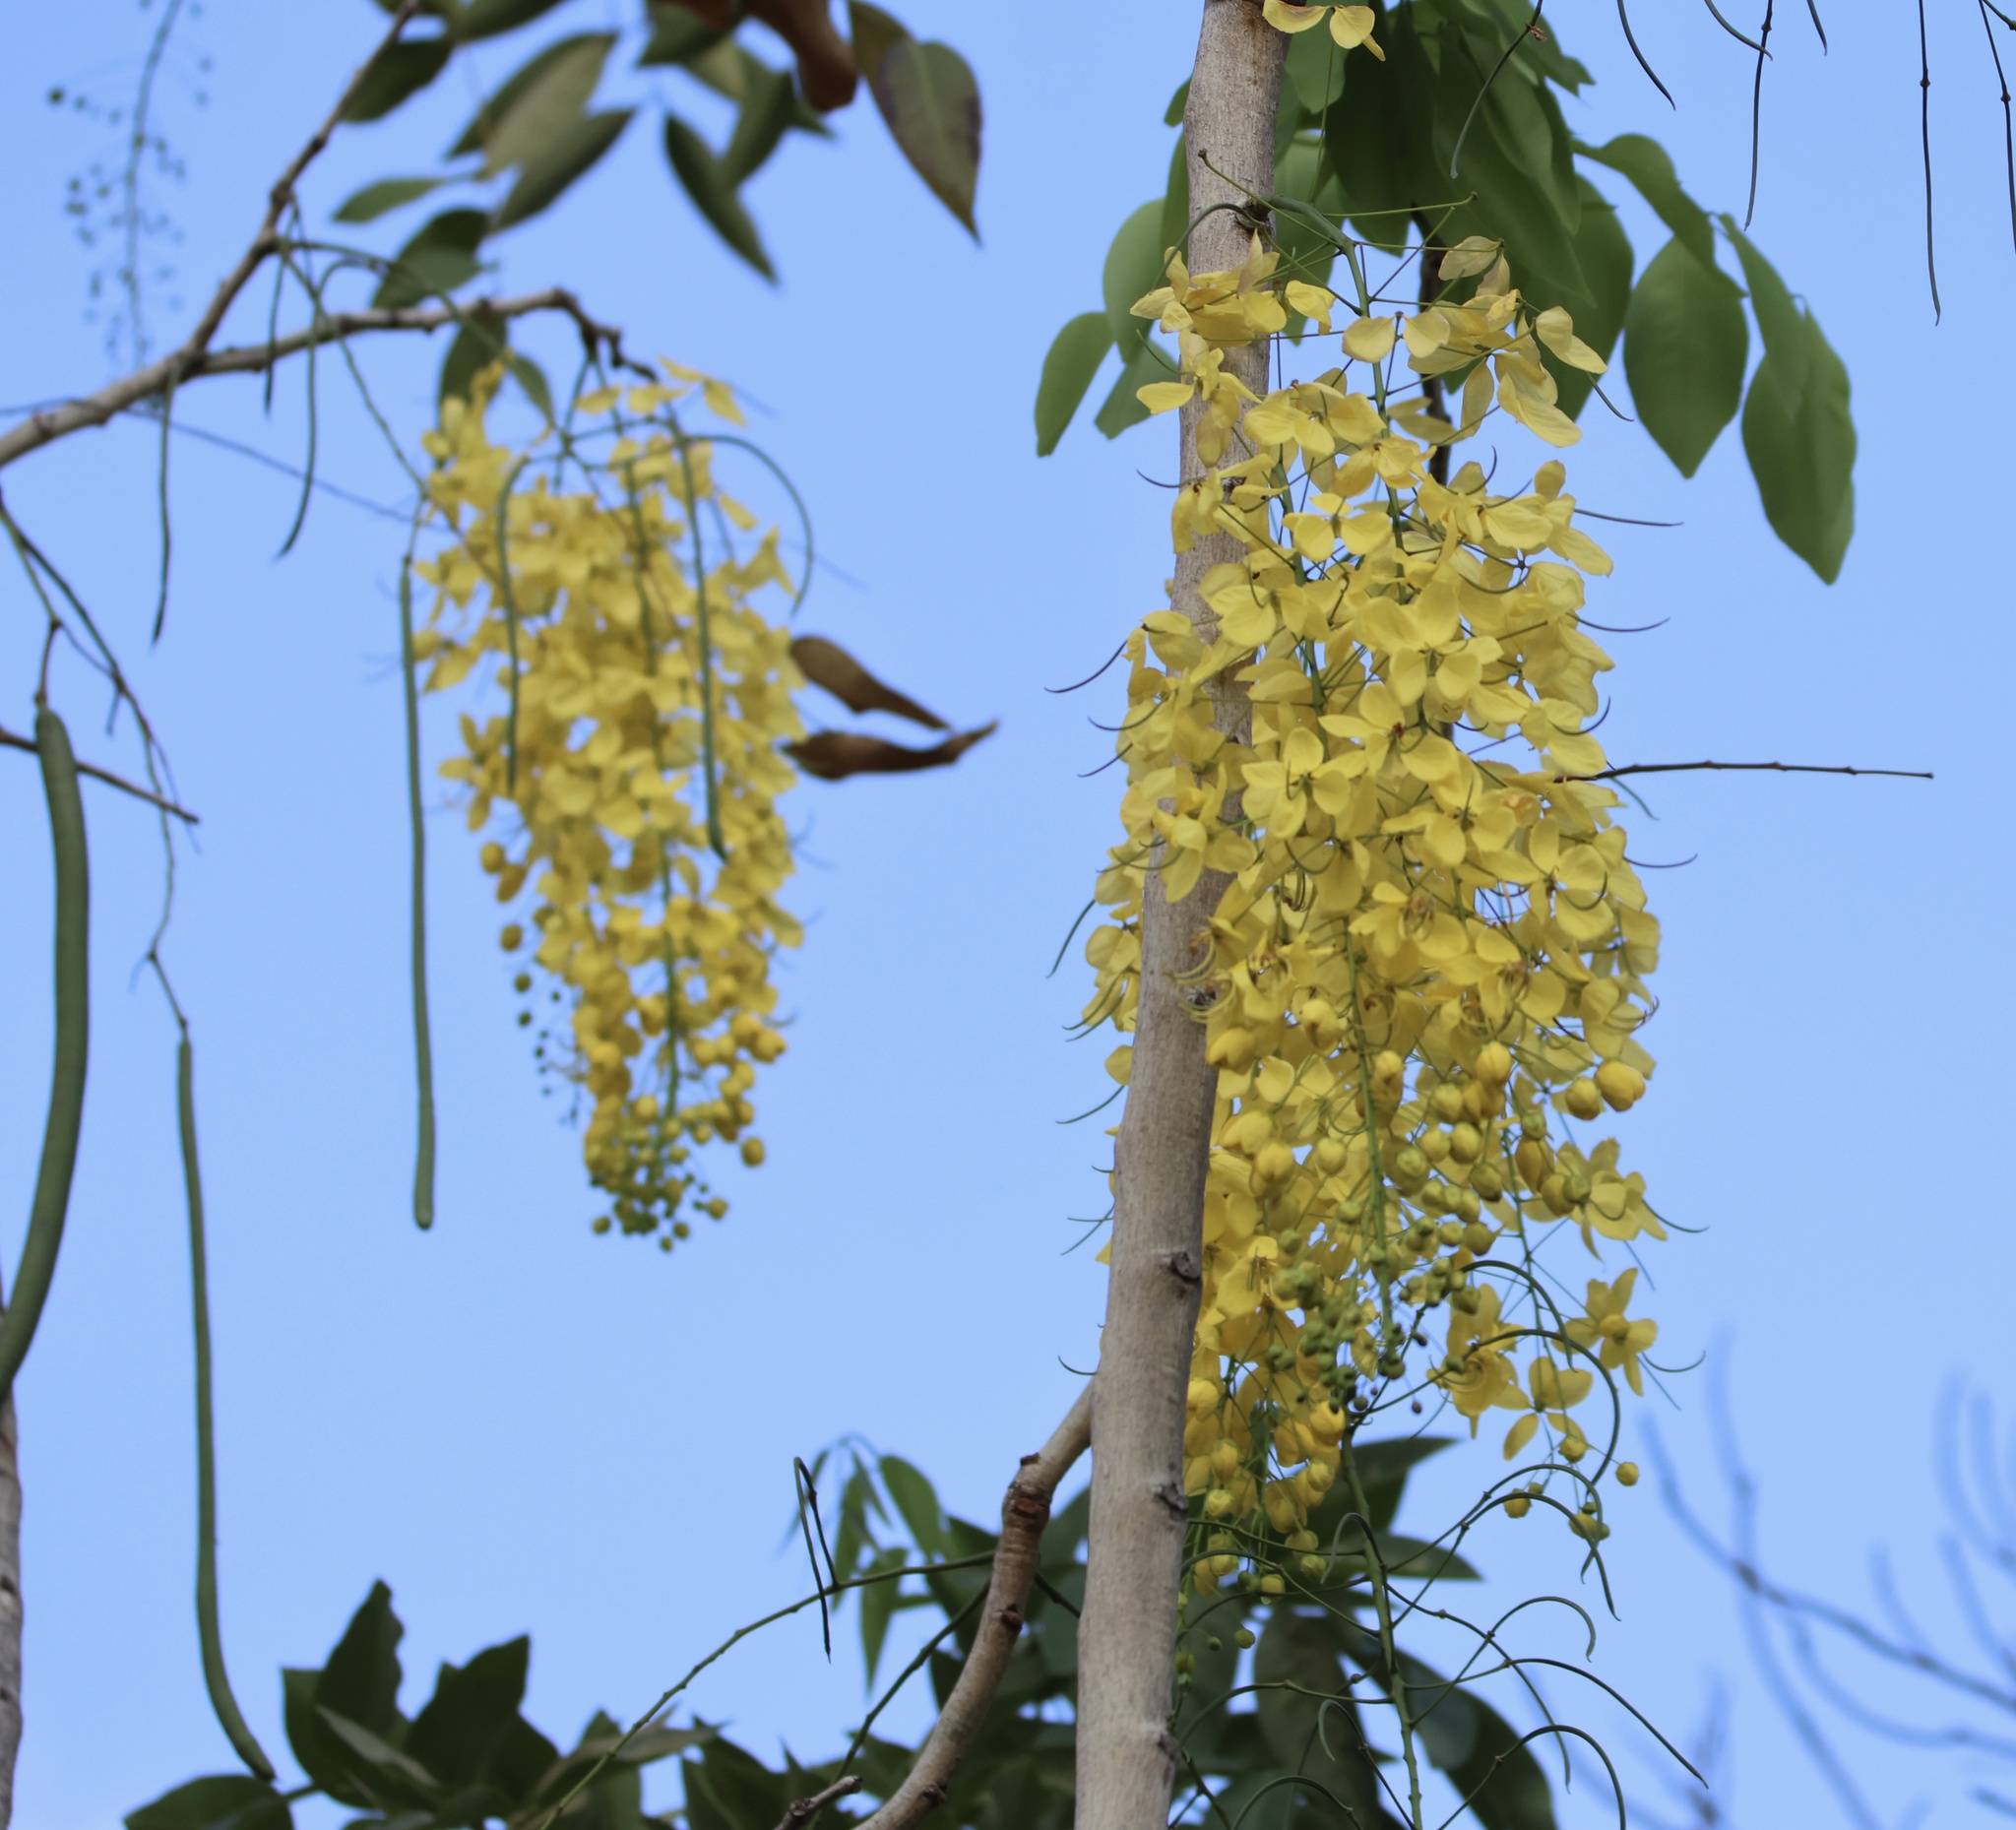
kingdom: Plantae
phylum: Tracheophyta
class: Magnoliopsida
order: Fabales
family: Fabaceae
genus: Cassia
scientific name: Cassia fistula
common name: Golden shower
